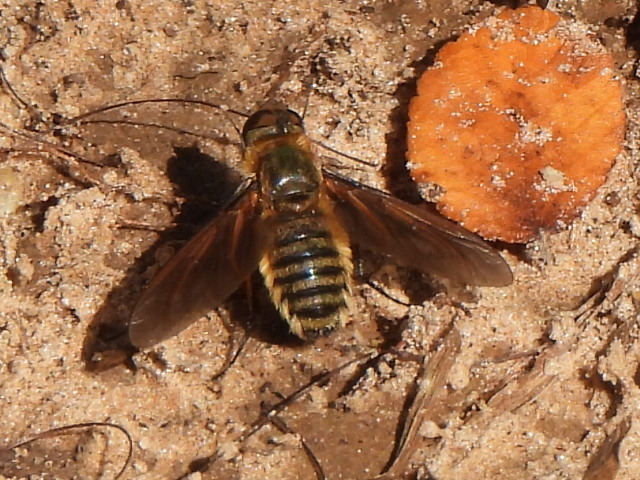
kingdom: Animalia
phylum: Arthropoda
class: Insecta
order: Diptera
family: Bombyliidae
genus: Poecilanthrax
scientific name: Poecilanthrax lucifer
